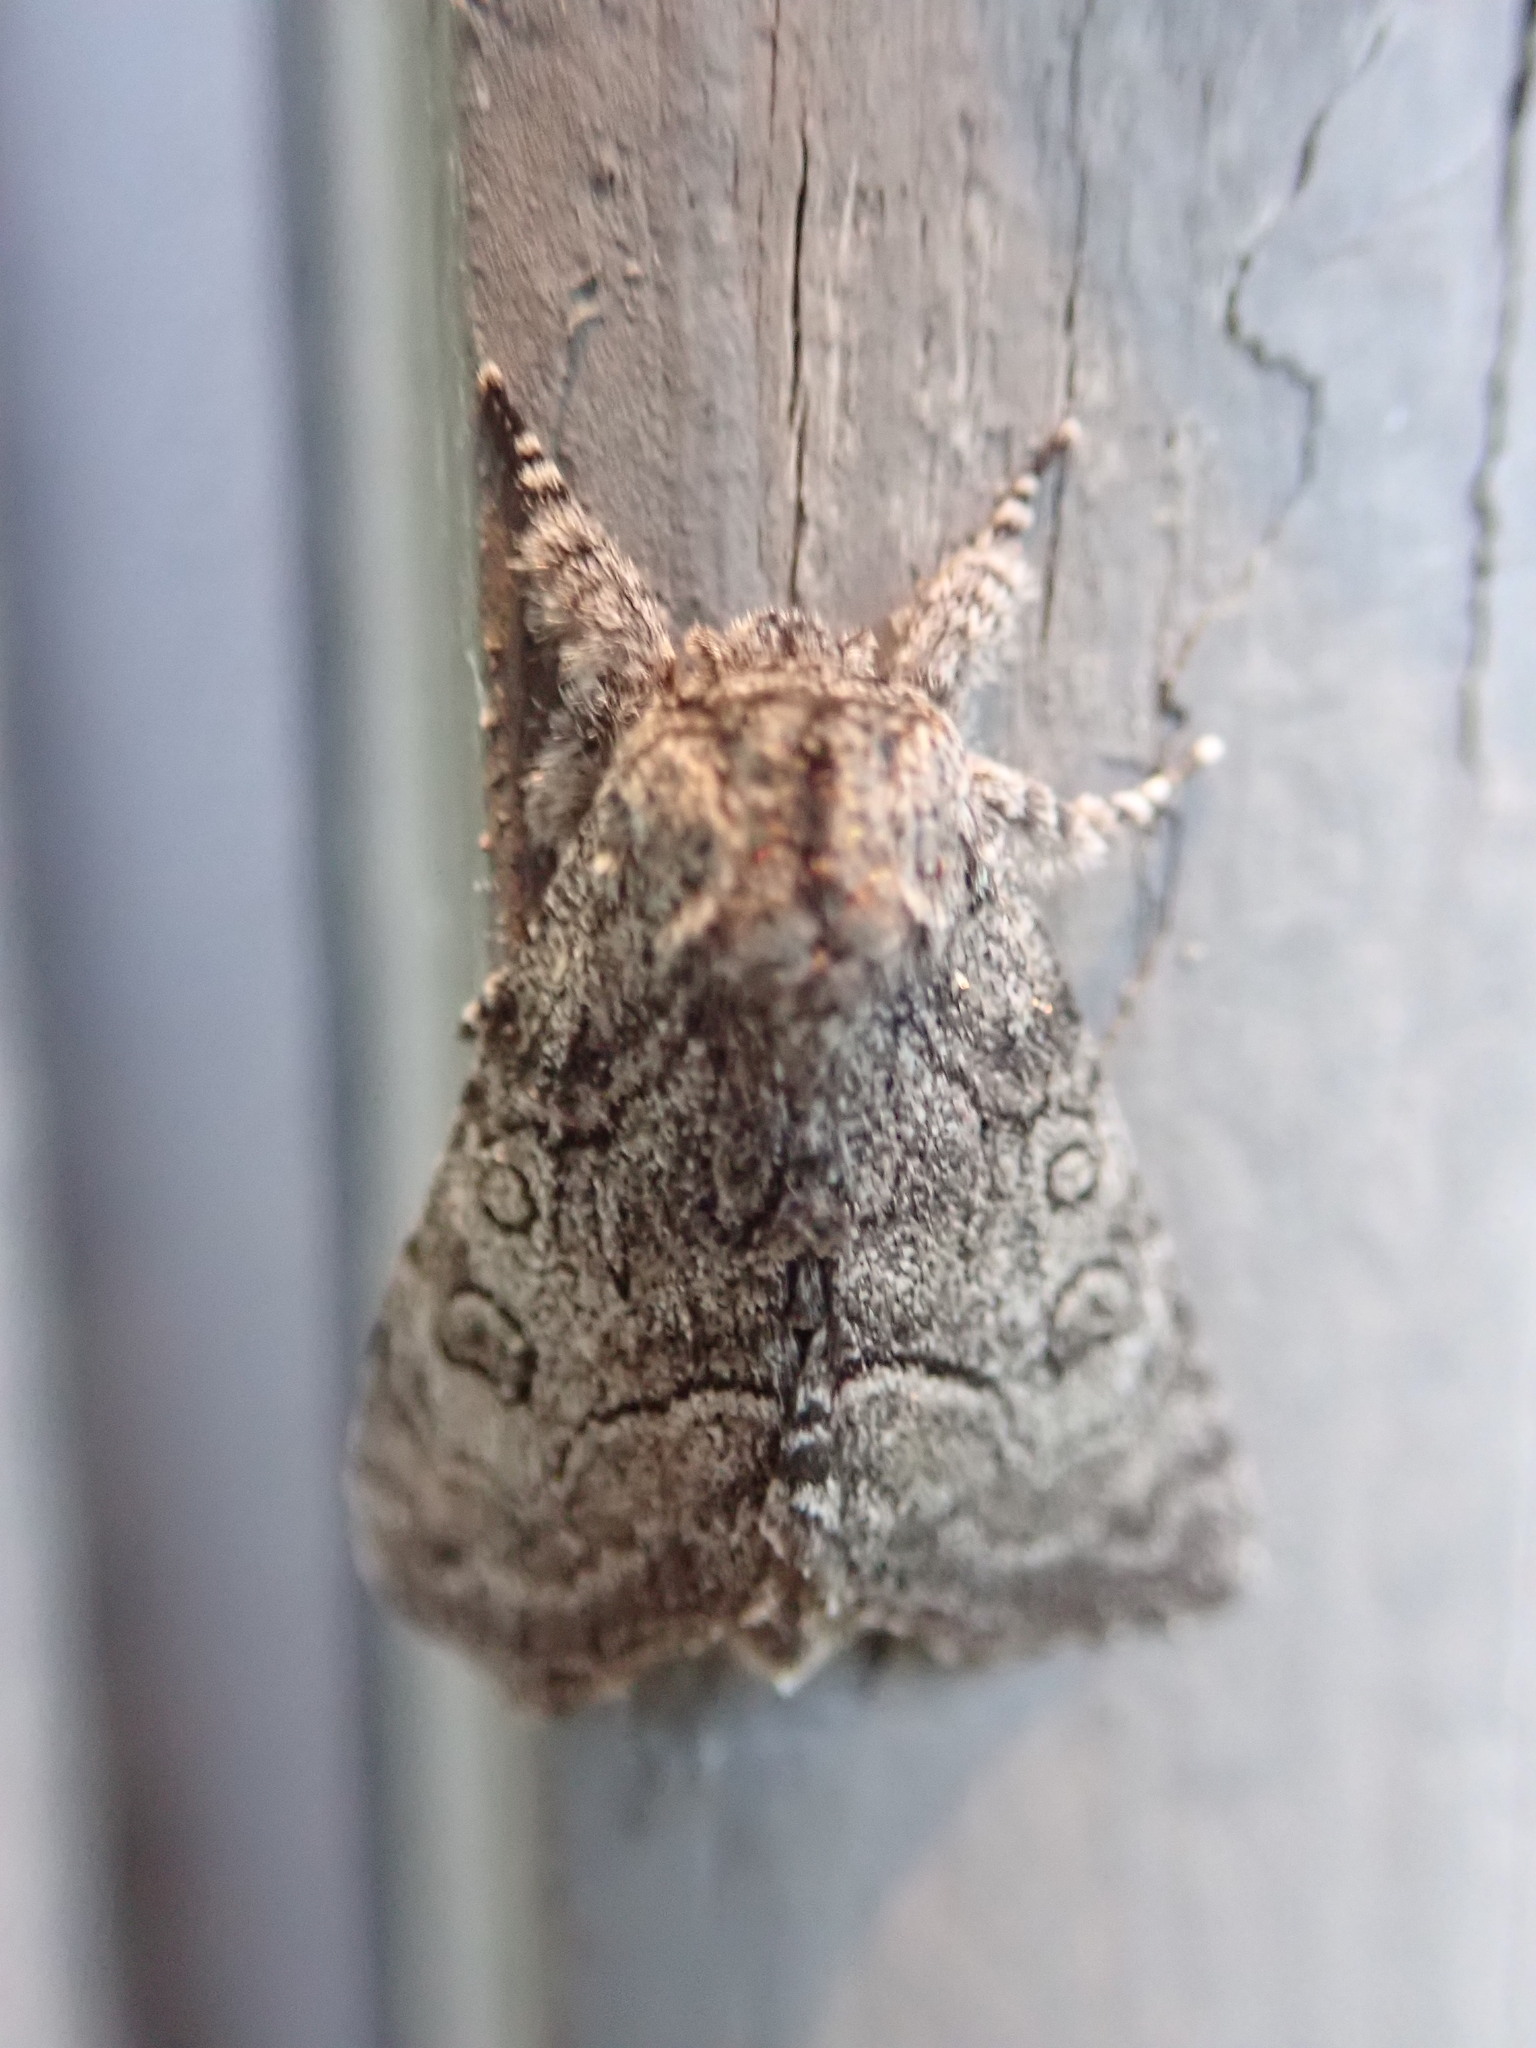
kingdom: Animalia
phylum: Arthropoda
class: Insecta
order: Lepidoptera
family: Noctuidae
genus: Raphia
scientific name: Raphia frater
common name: Brother
